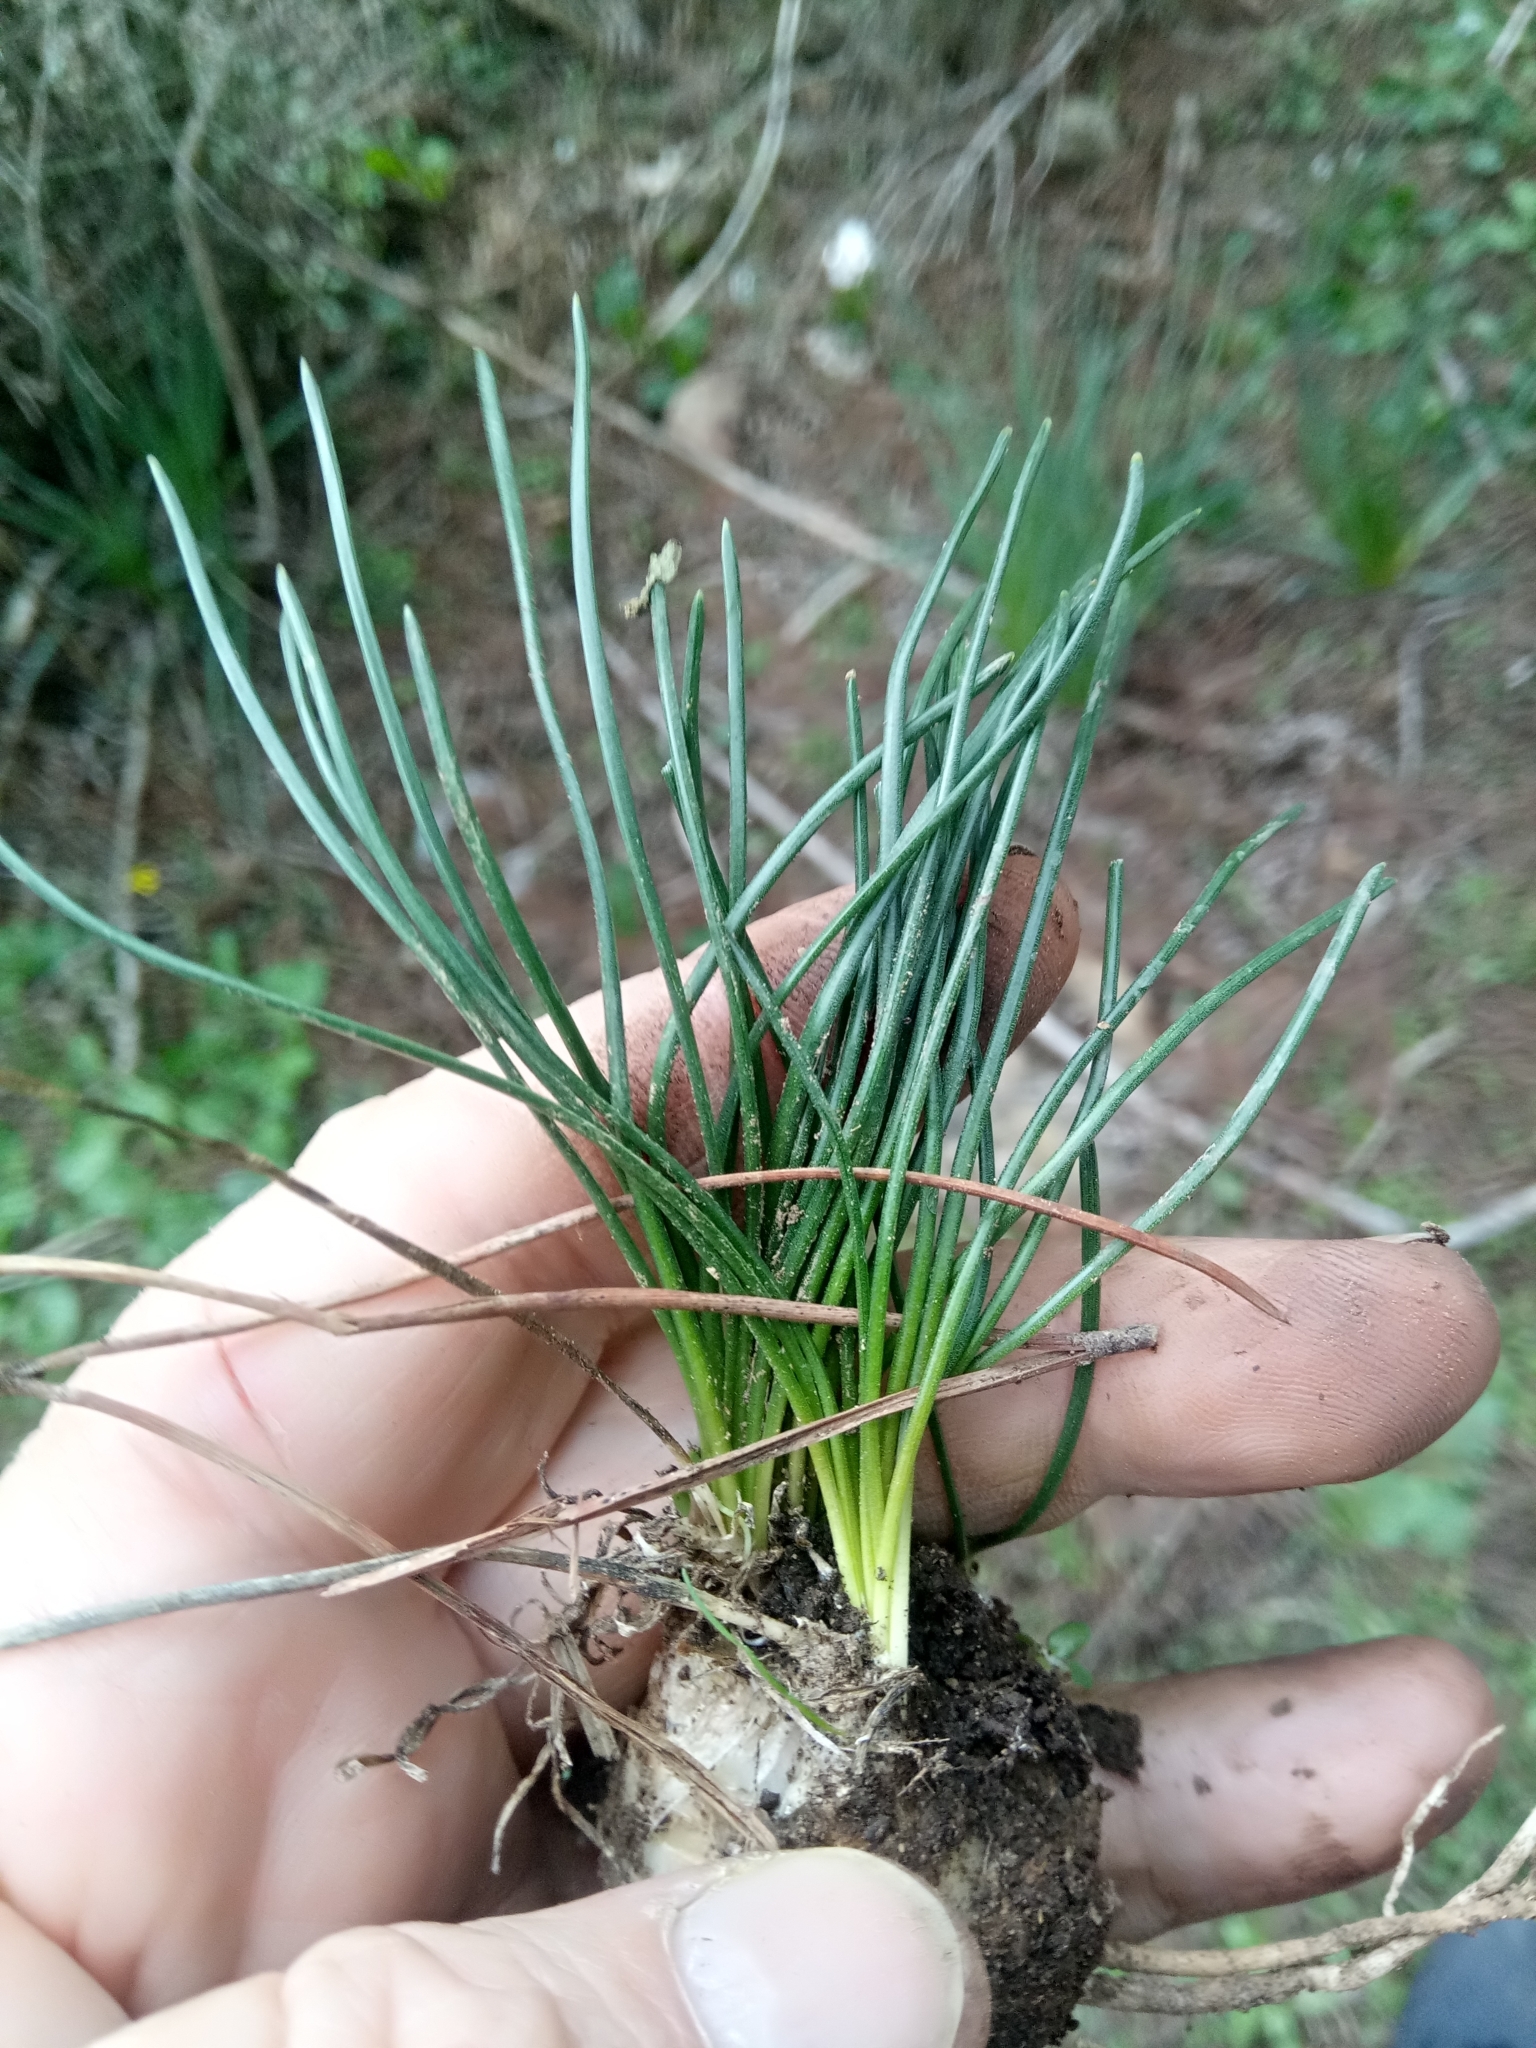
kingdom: Plantae
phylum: Tracheophyta
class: Liliopsida
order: Asparagales
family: Asparagaceae
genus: Drimia
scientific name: Drimia fugax
